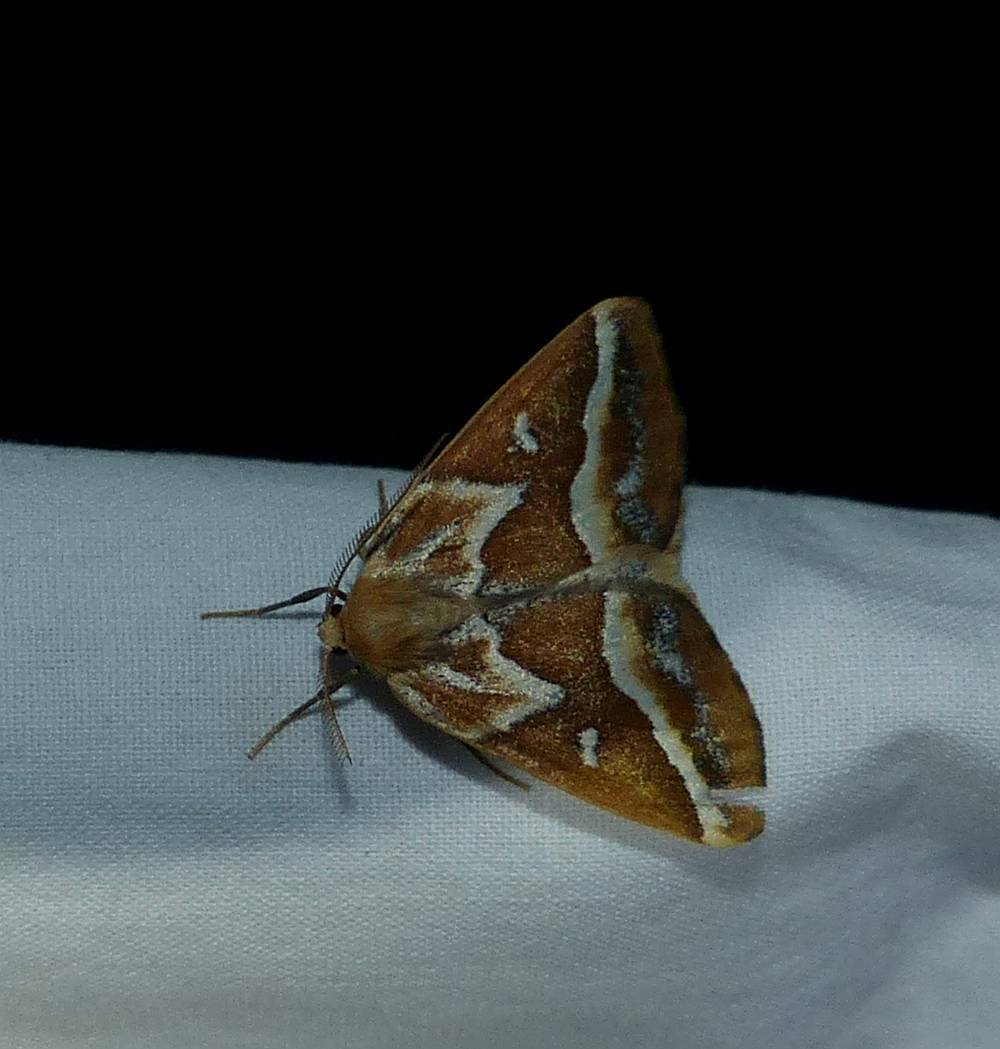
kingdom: Animalia
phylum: Arthropoda
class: Insecta
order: Lepidoptera
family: Geometridae
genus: Caripeta
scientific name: Caripeta angustiorata
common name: Brown pine looper
